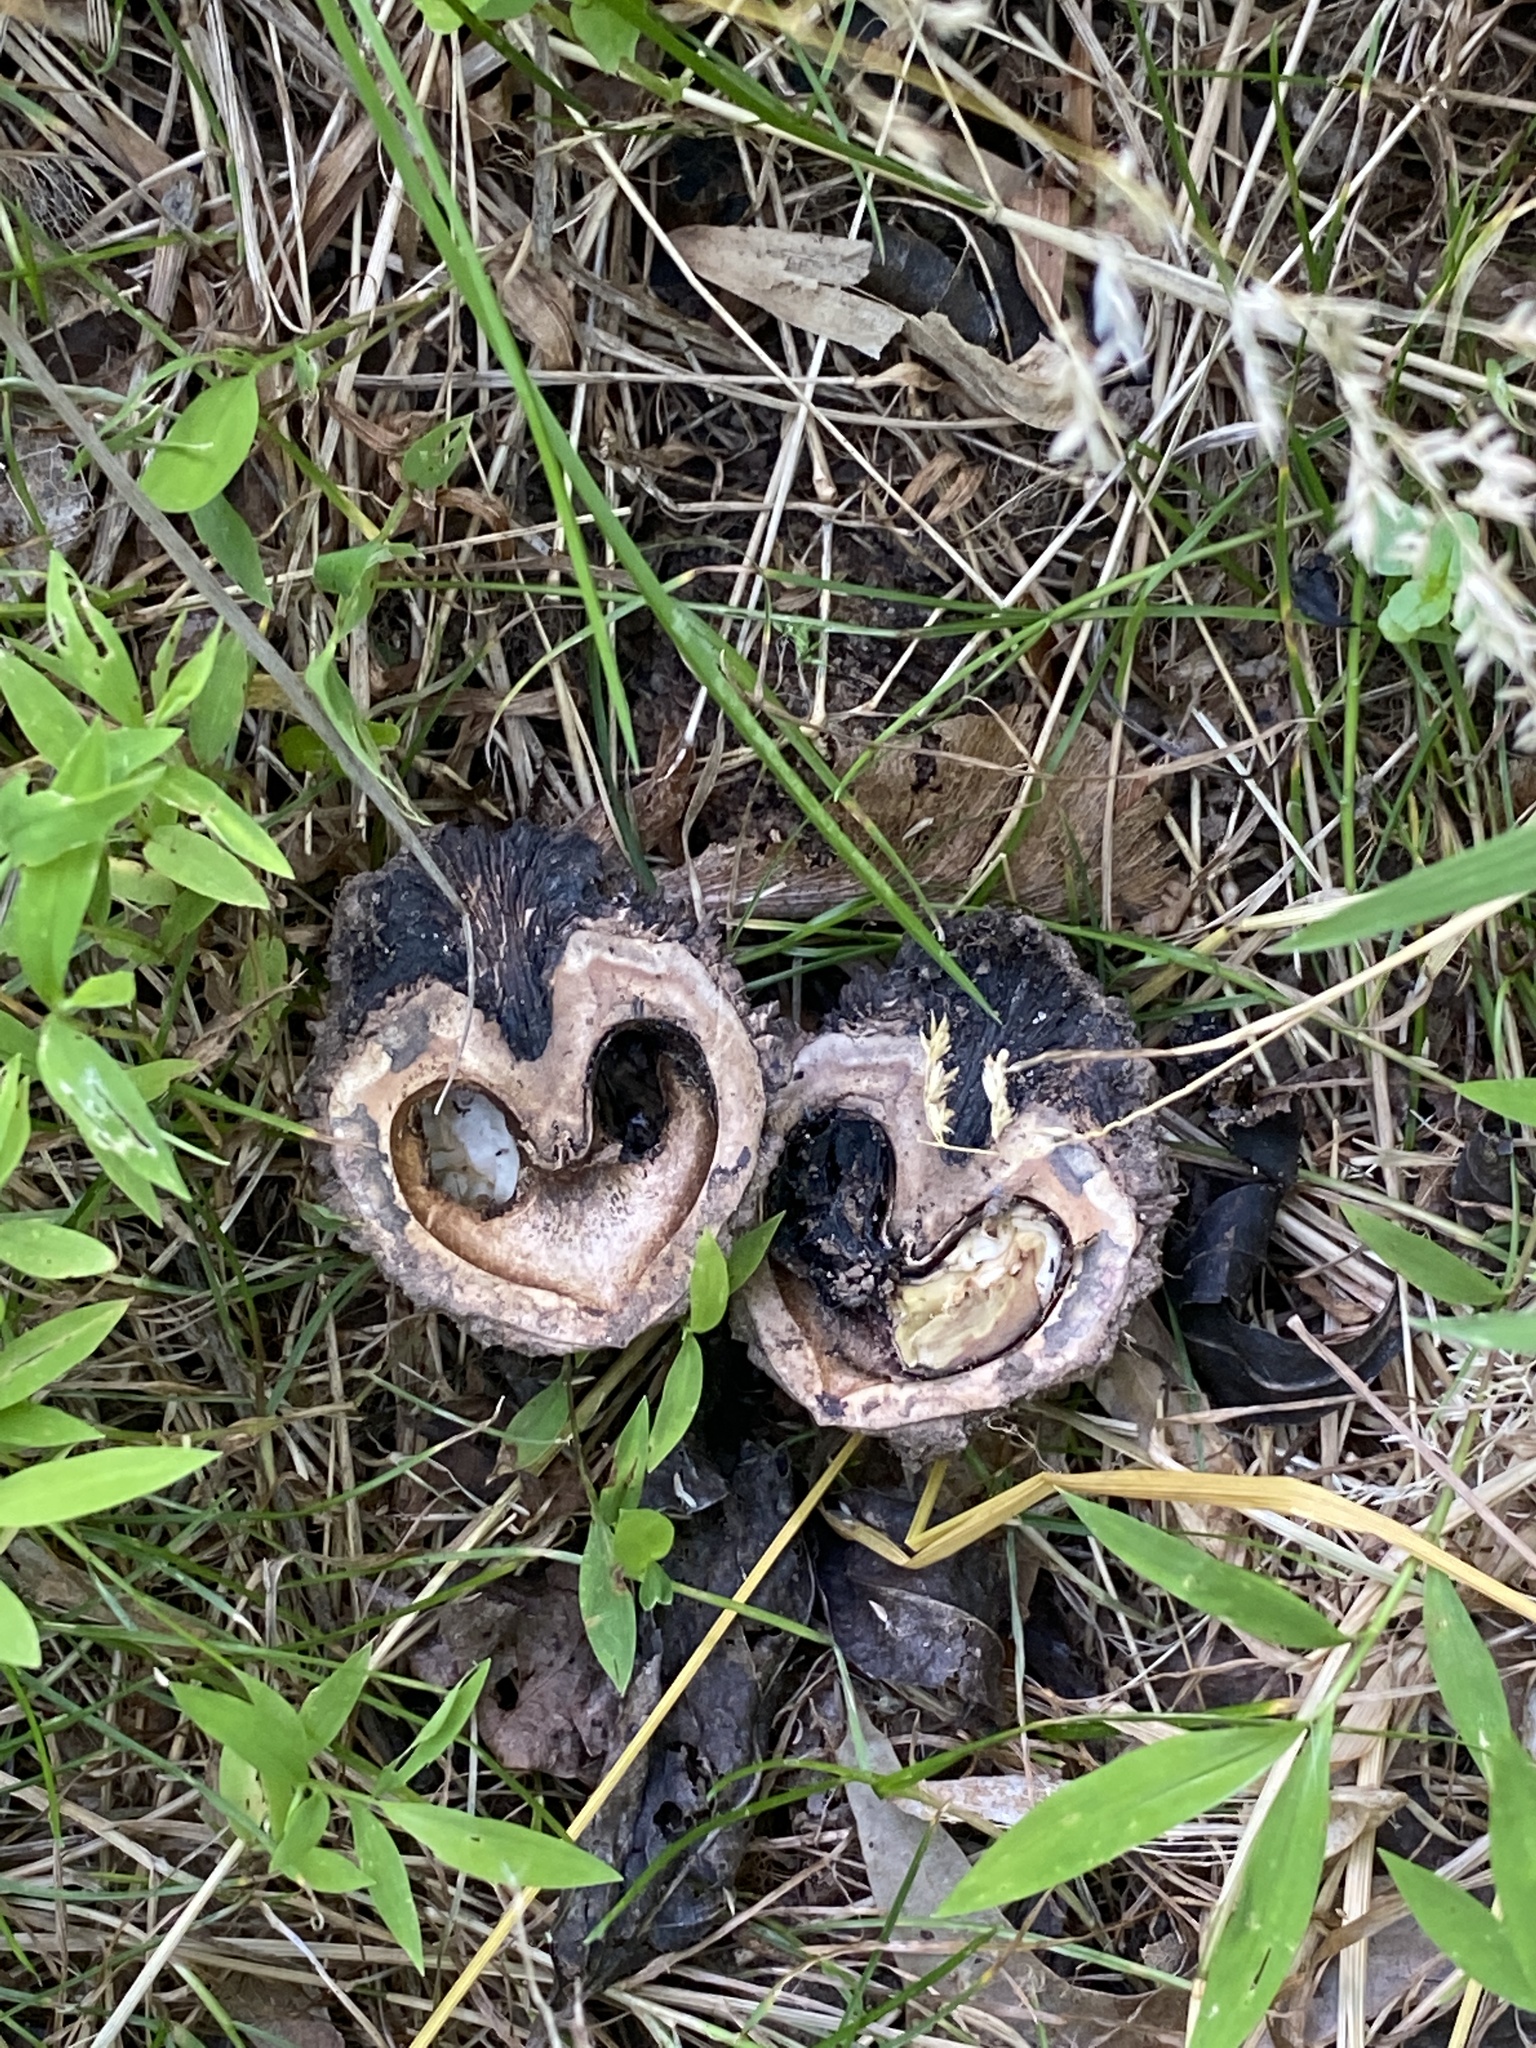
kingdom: Plantae
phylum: Tracheophyta
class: Magnoliopsida
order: Fagales
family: Juglandaceae
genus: Juglans
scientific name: Juglans nigra
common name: Black walnut
